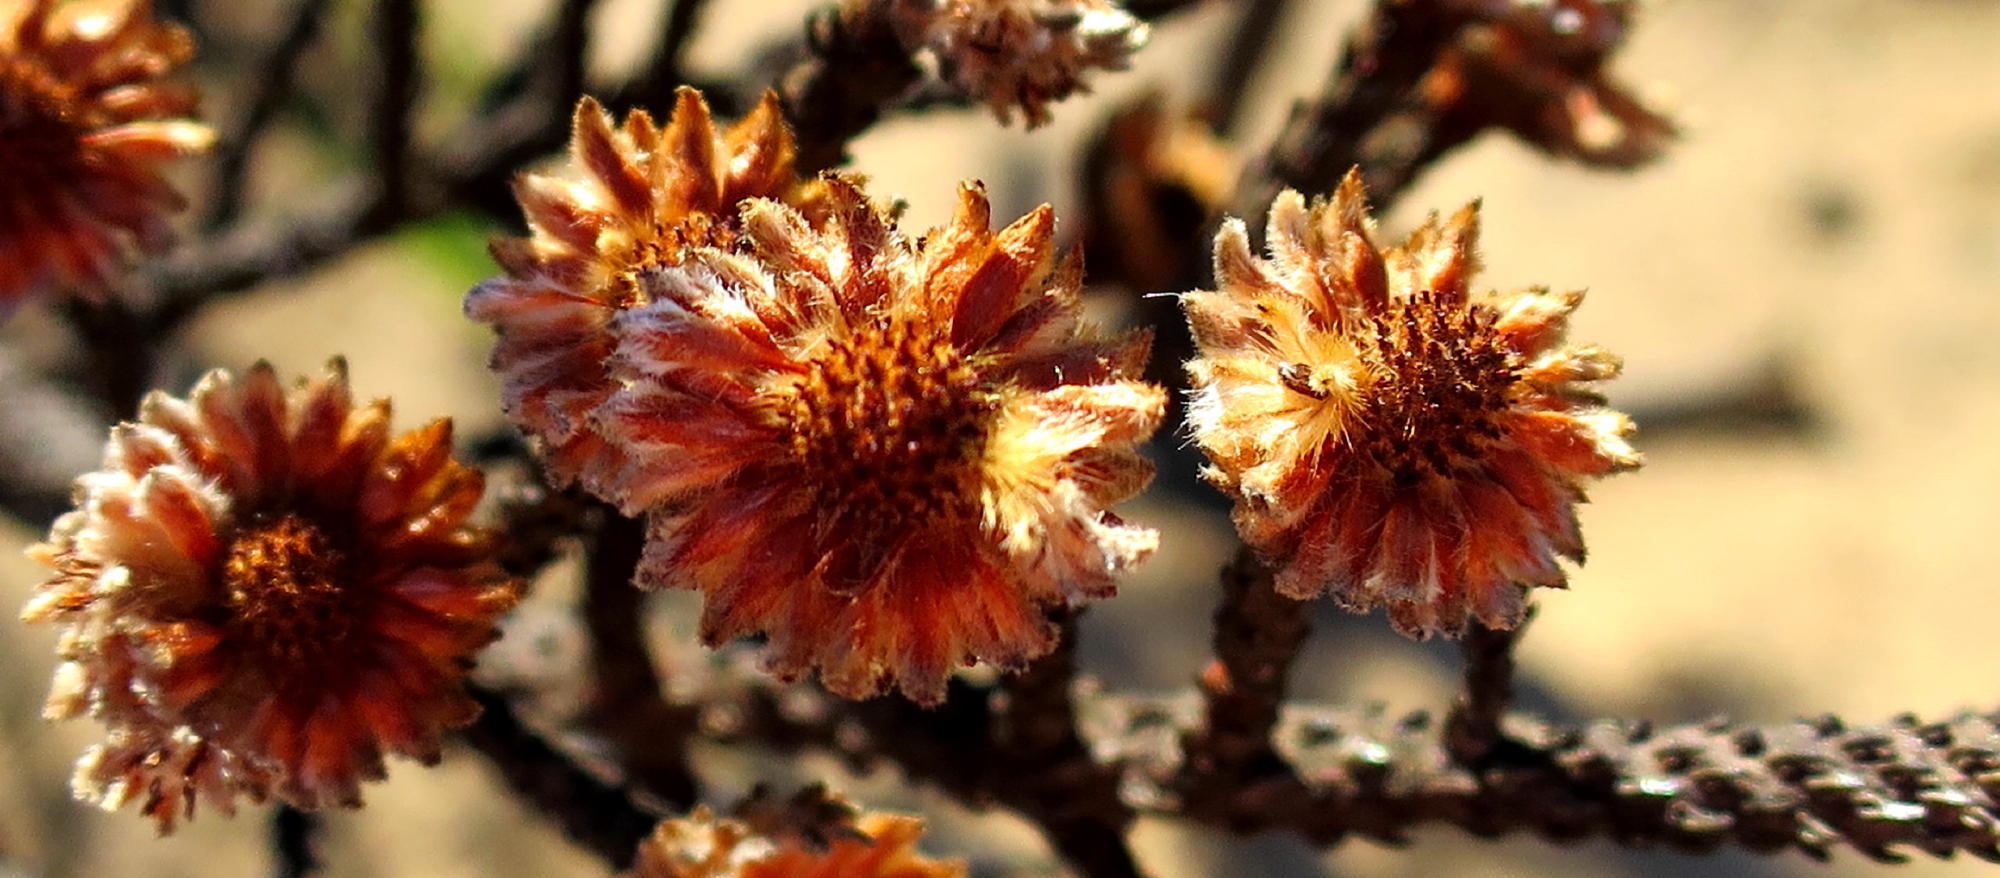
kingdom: Plantae
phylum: Tracheophyta
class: Magnoliopsida
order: Bruniales
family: Bruniaceae
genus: Brunia
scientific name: Brunia noduliflora
